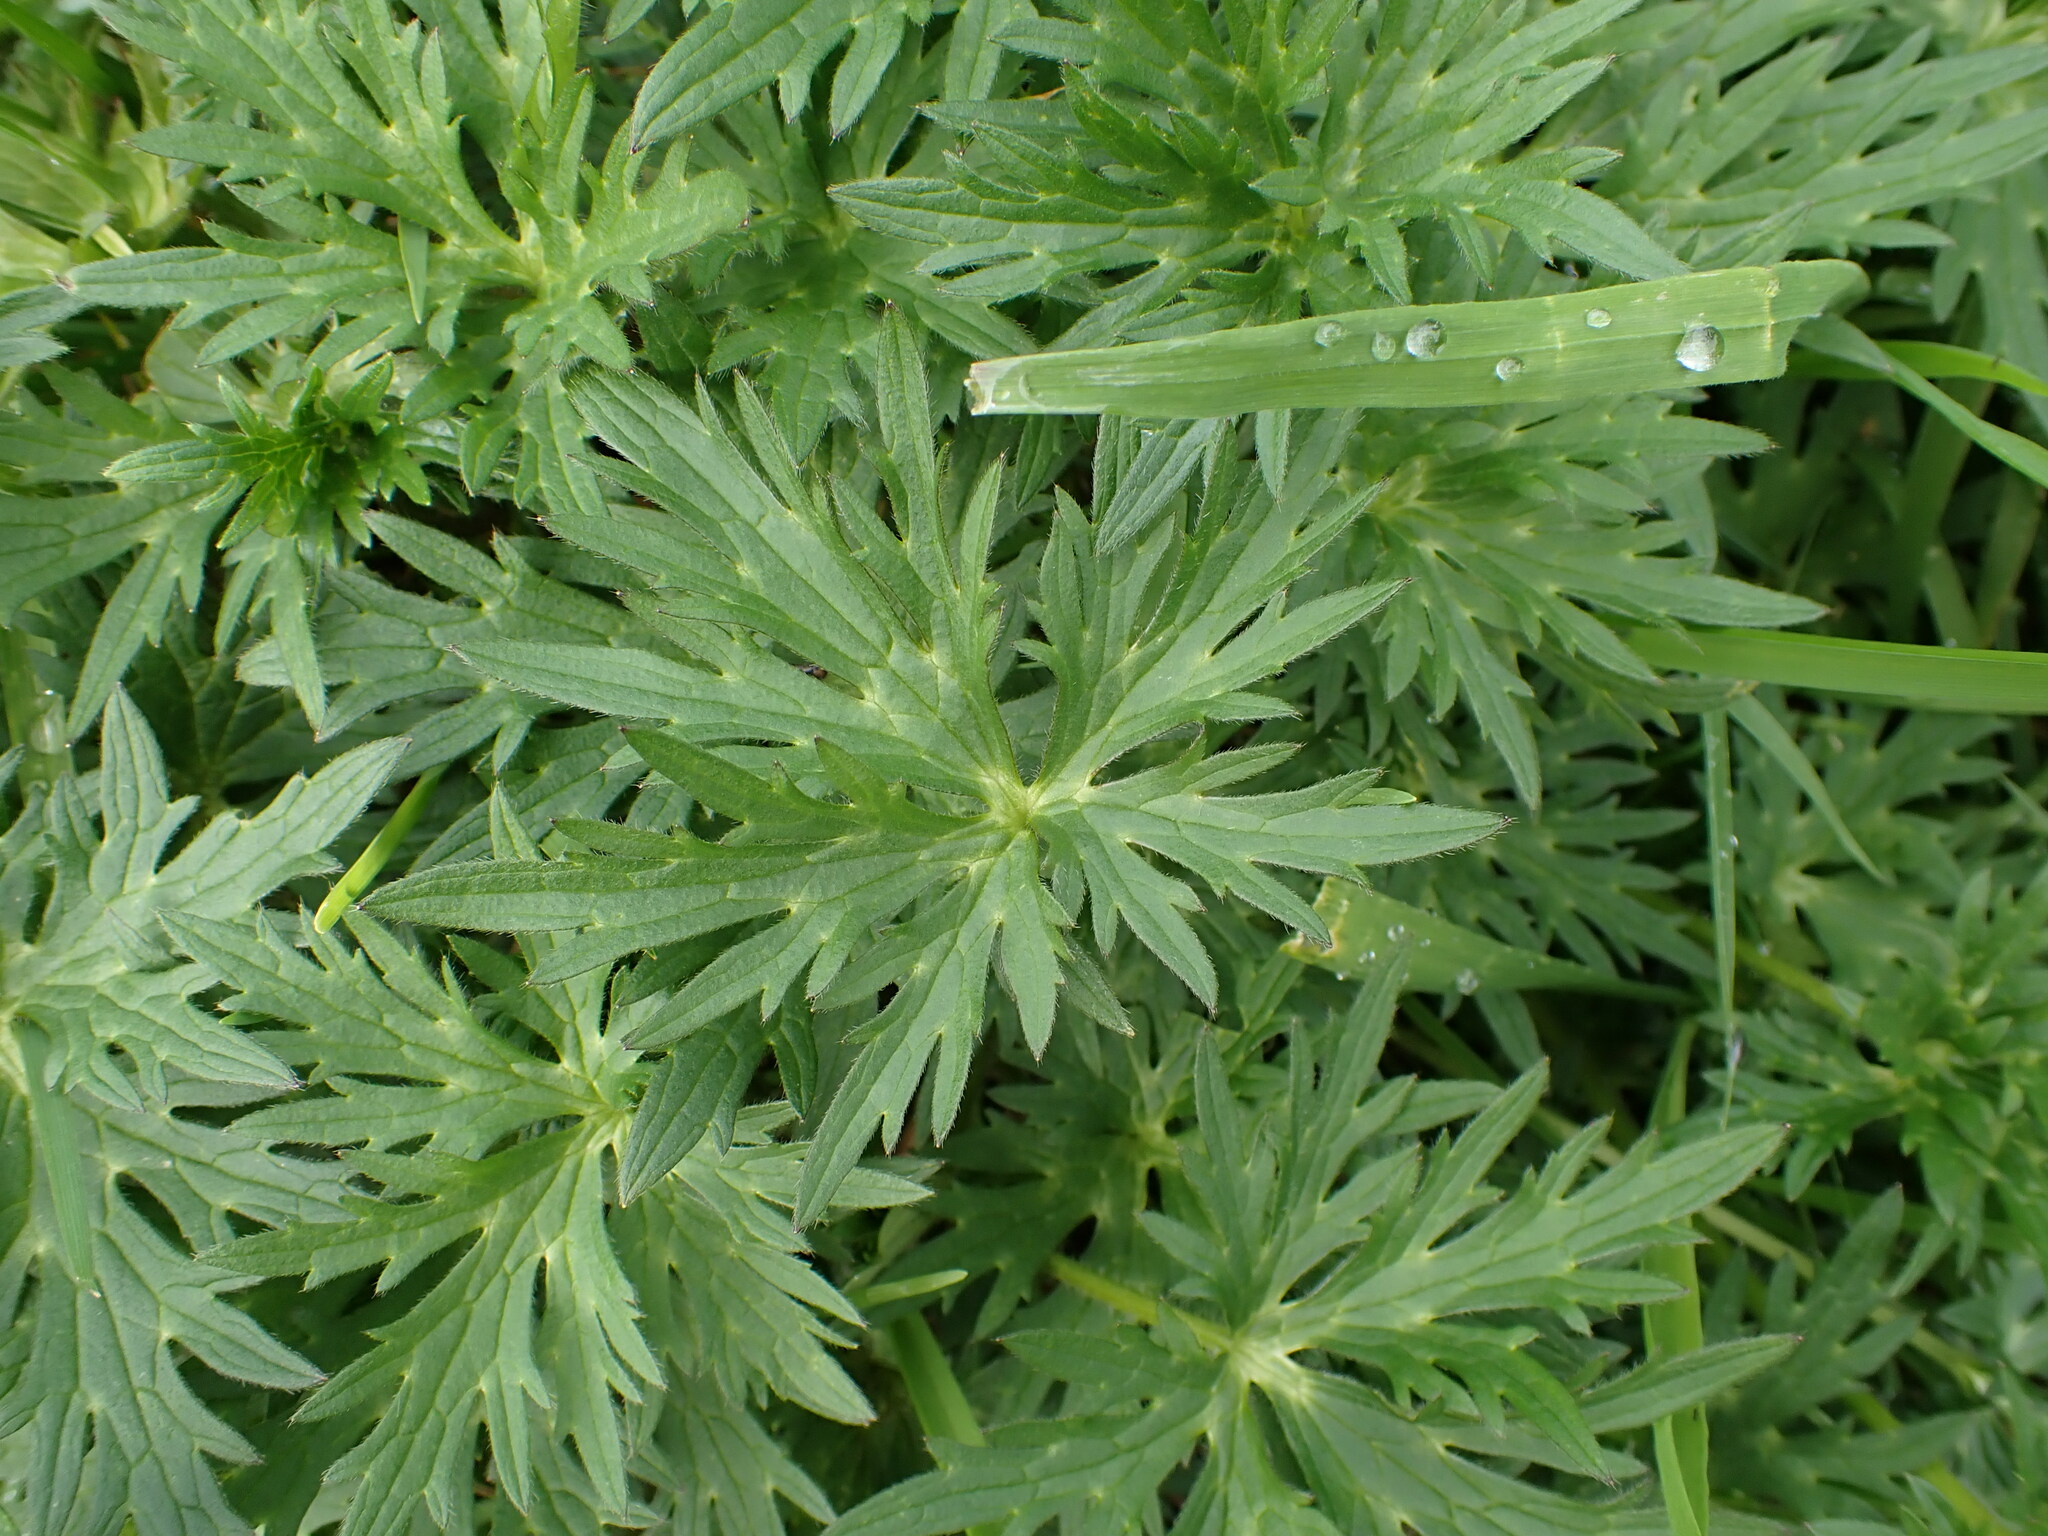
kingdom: Plantae
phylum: Tracheophyta
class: Magnoliopsida
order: Ranunculales
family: Ranunculaceae
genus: Ranunculus
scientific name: Ranunculus acris
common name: Meadow buttercup
